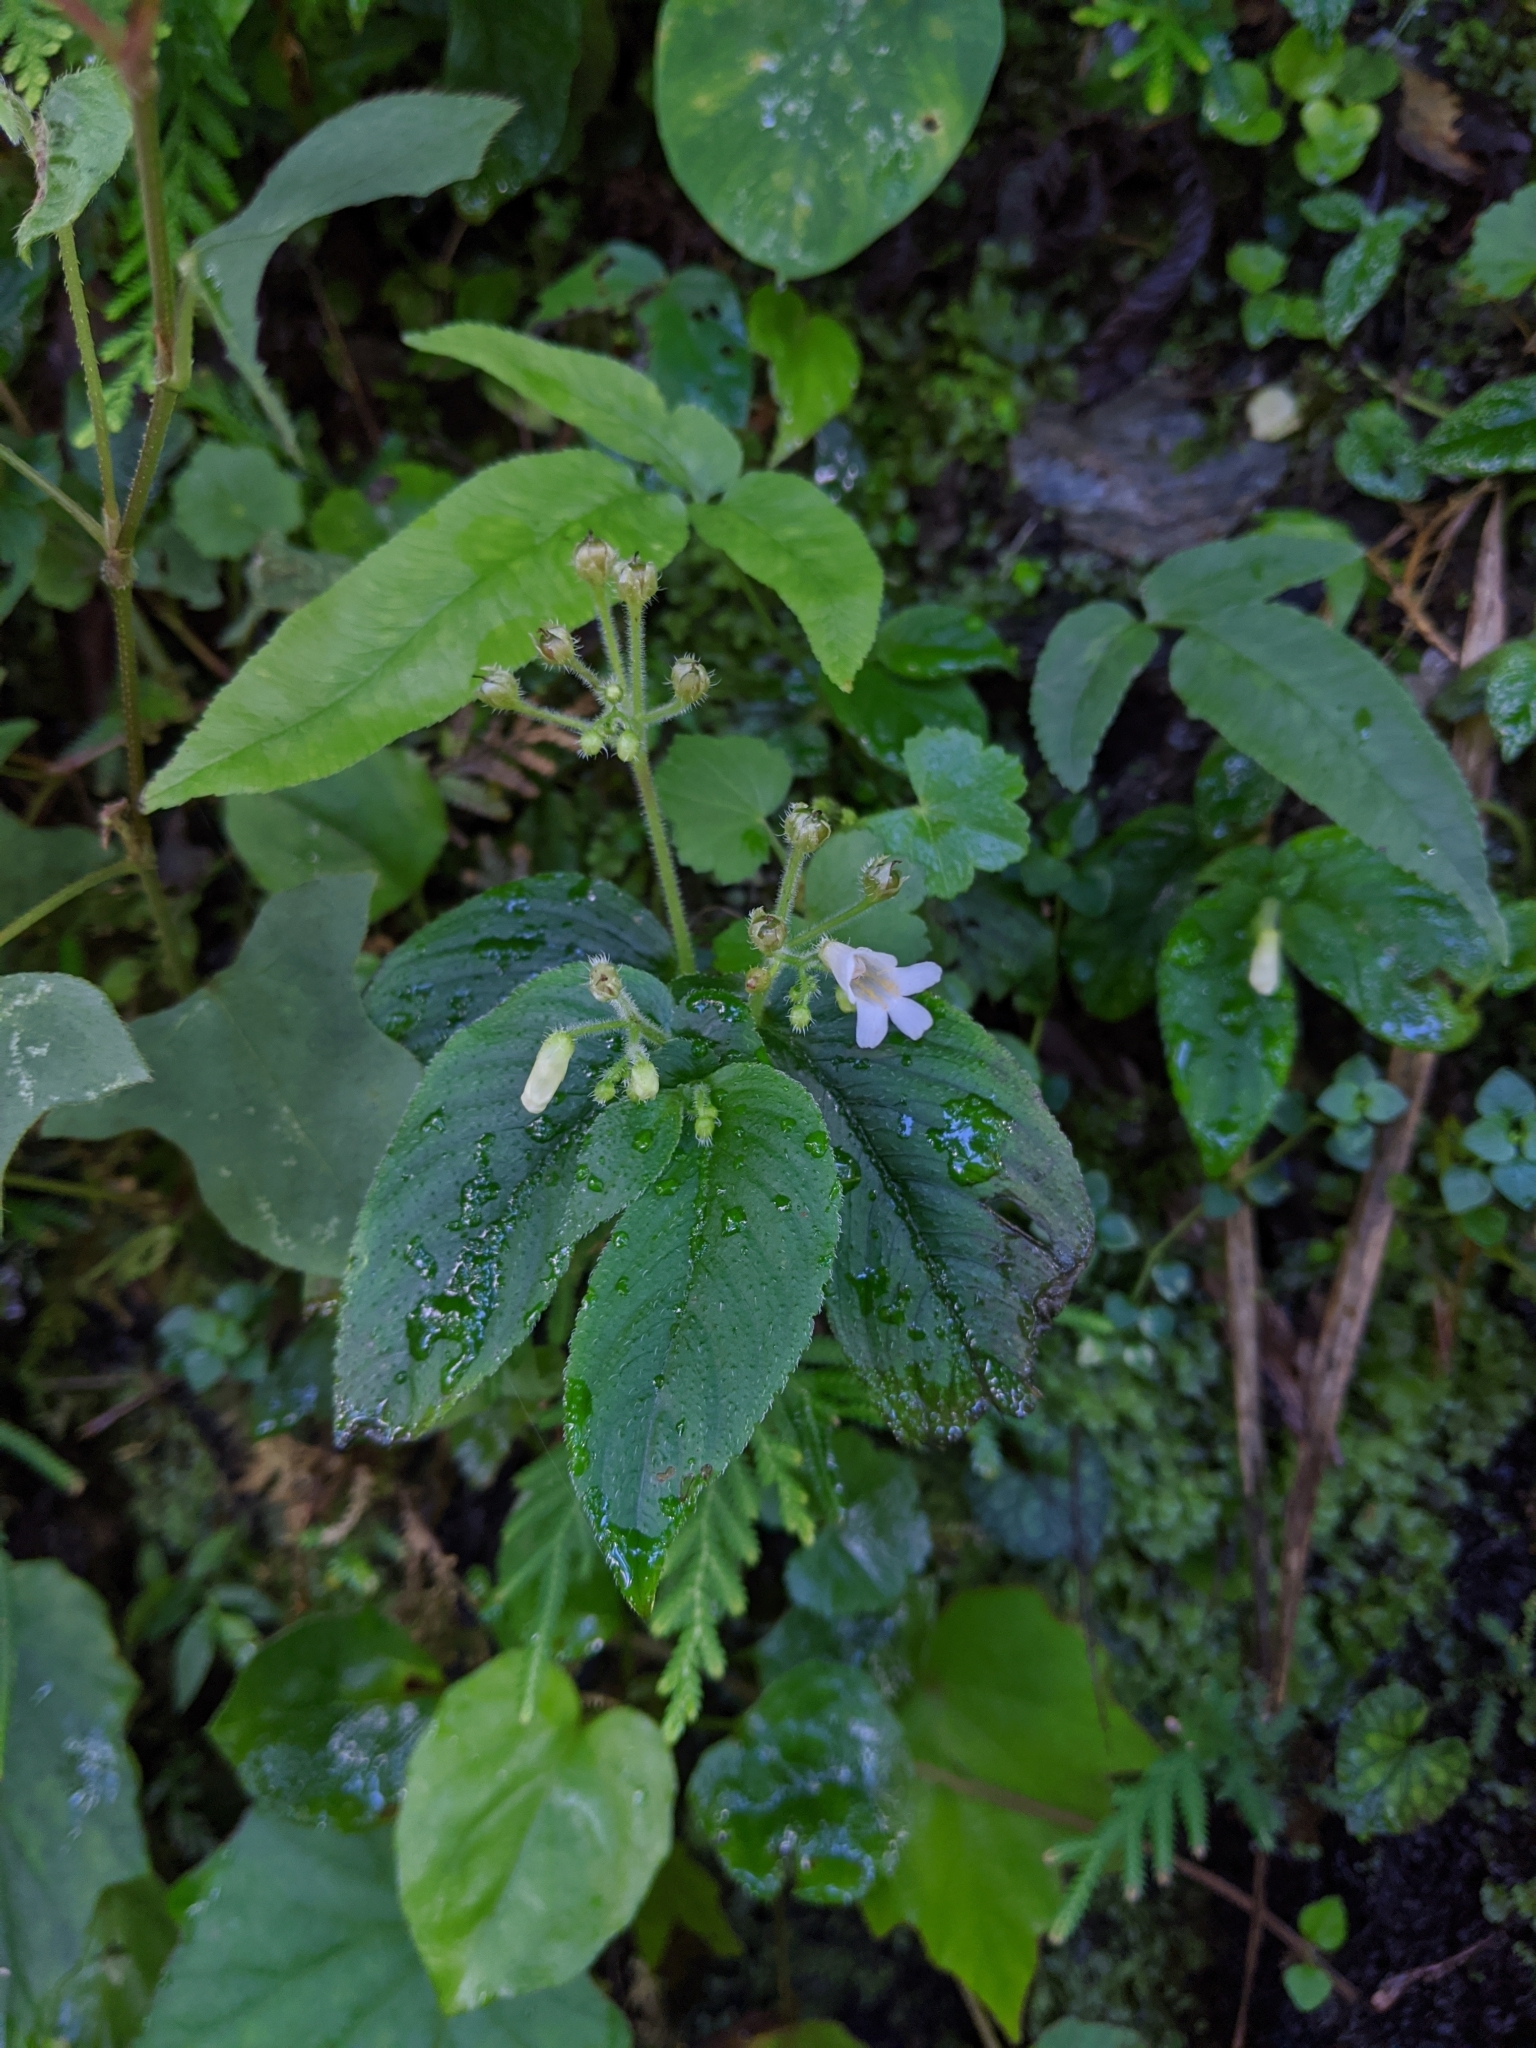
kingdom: Plantae
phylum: Tracheophyta
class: Magnoliopsida
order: Lamiales
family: Gesneriaceae
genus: Whytockia
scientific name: Whytockia sasakii
